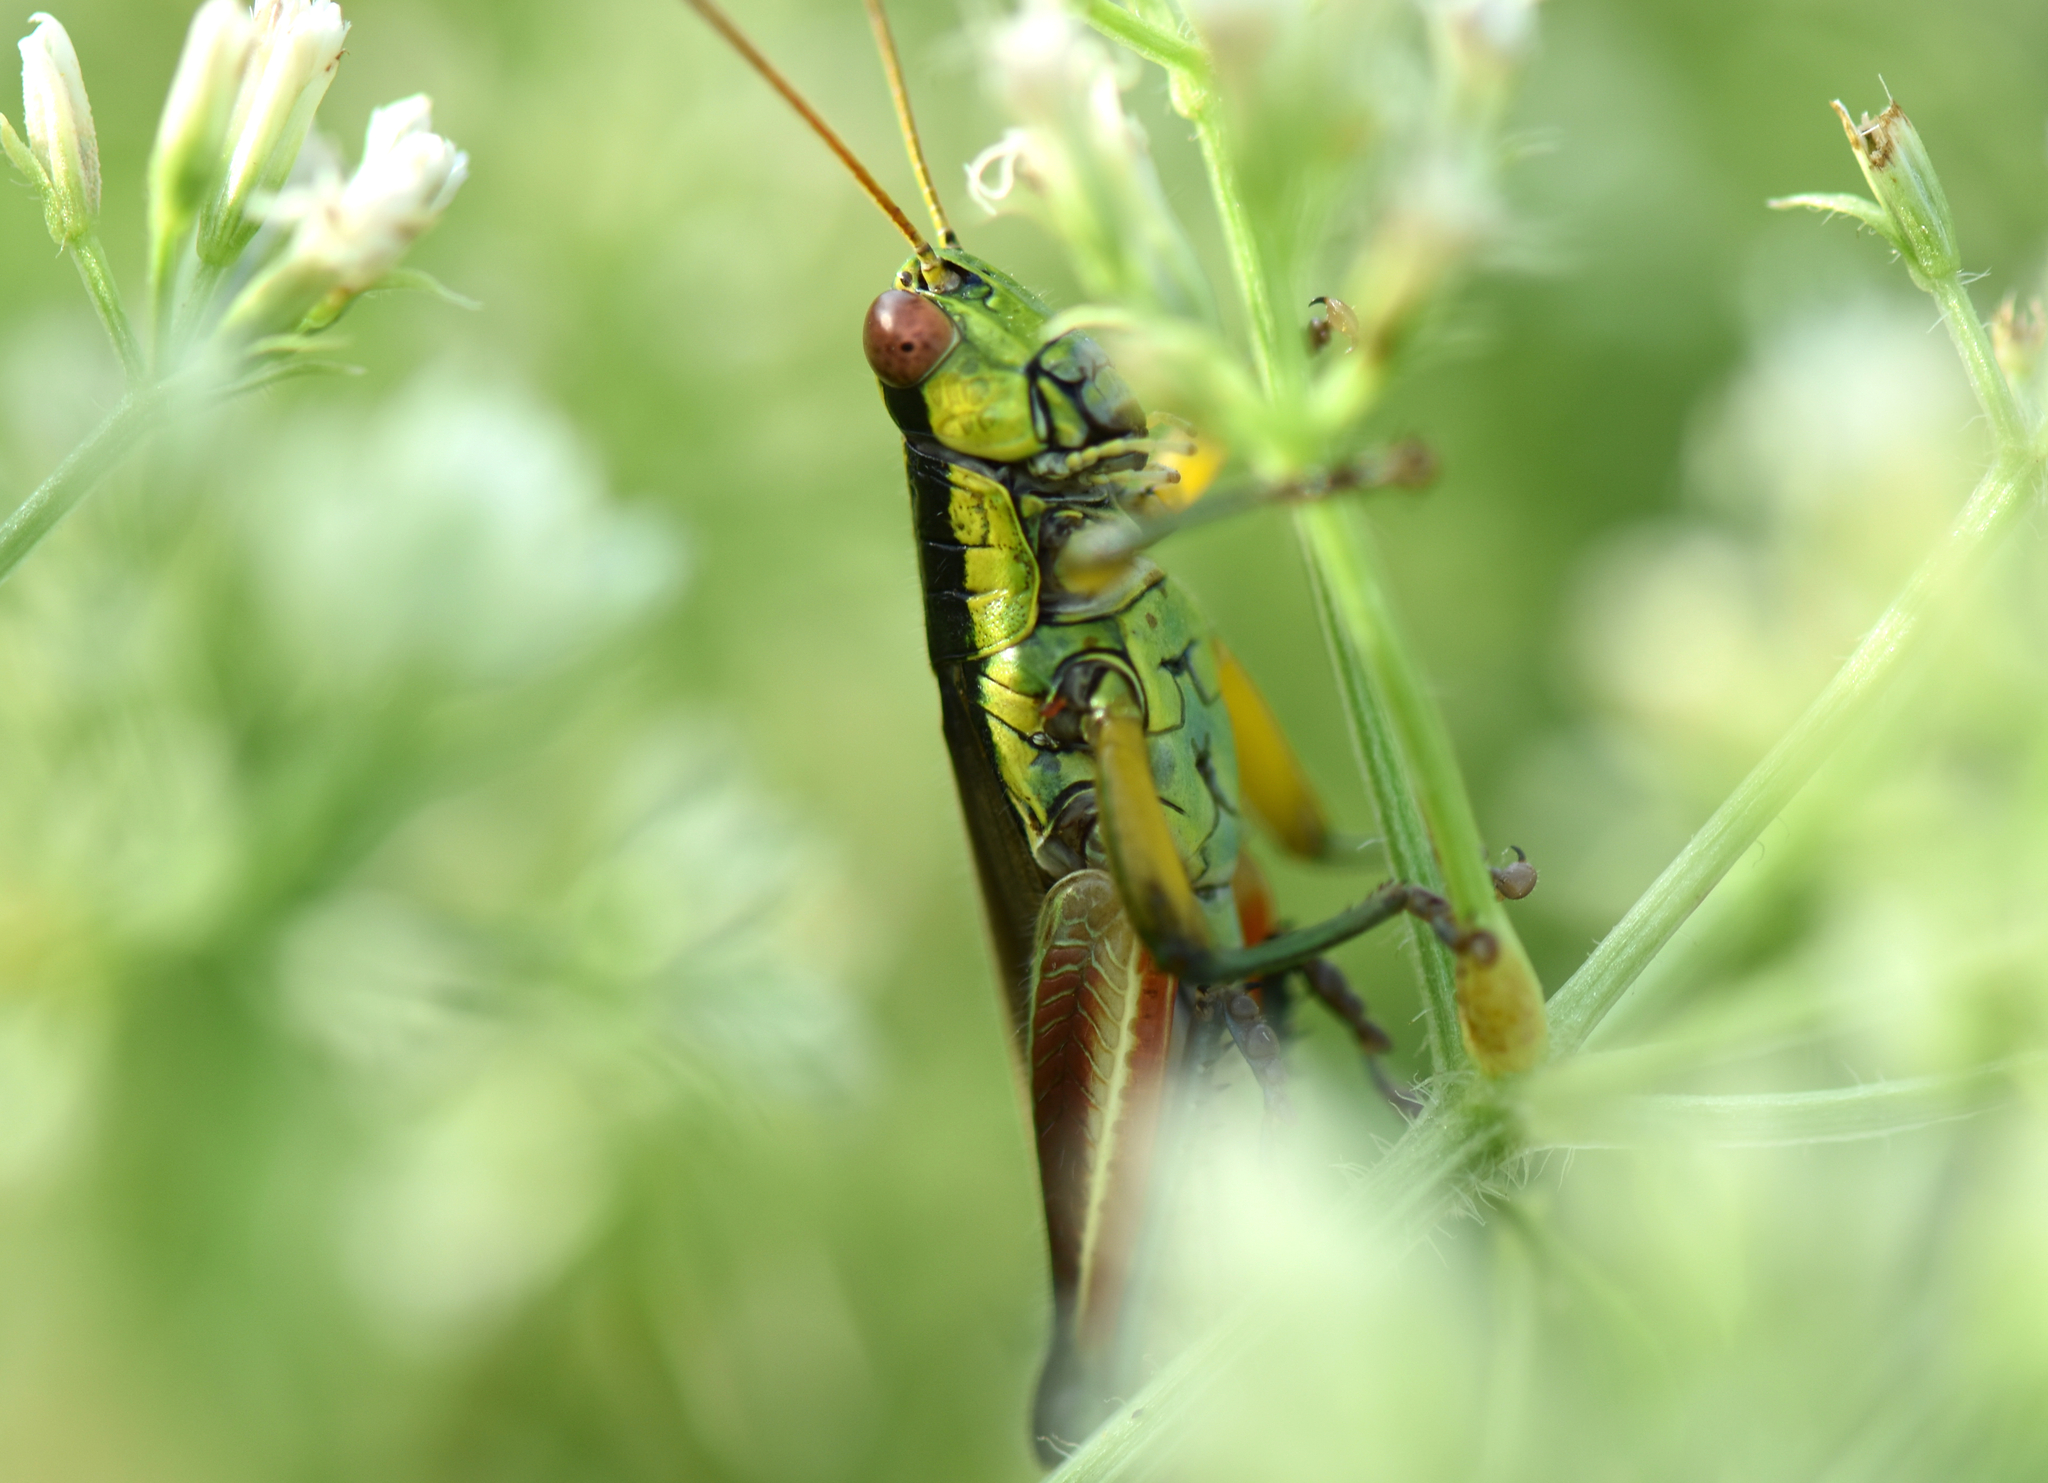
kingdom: Animalia
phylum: Arthropoda
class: Insecta
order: Orthoptera
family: Acrididae
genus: Scotussa
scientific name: Scotussa impudica
